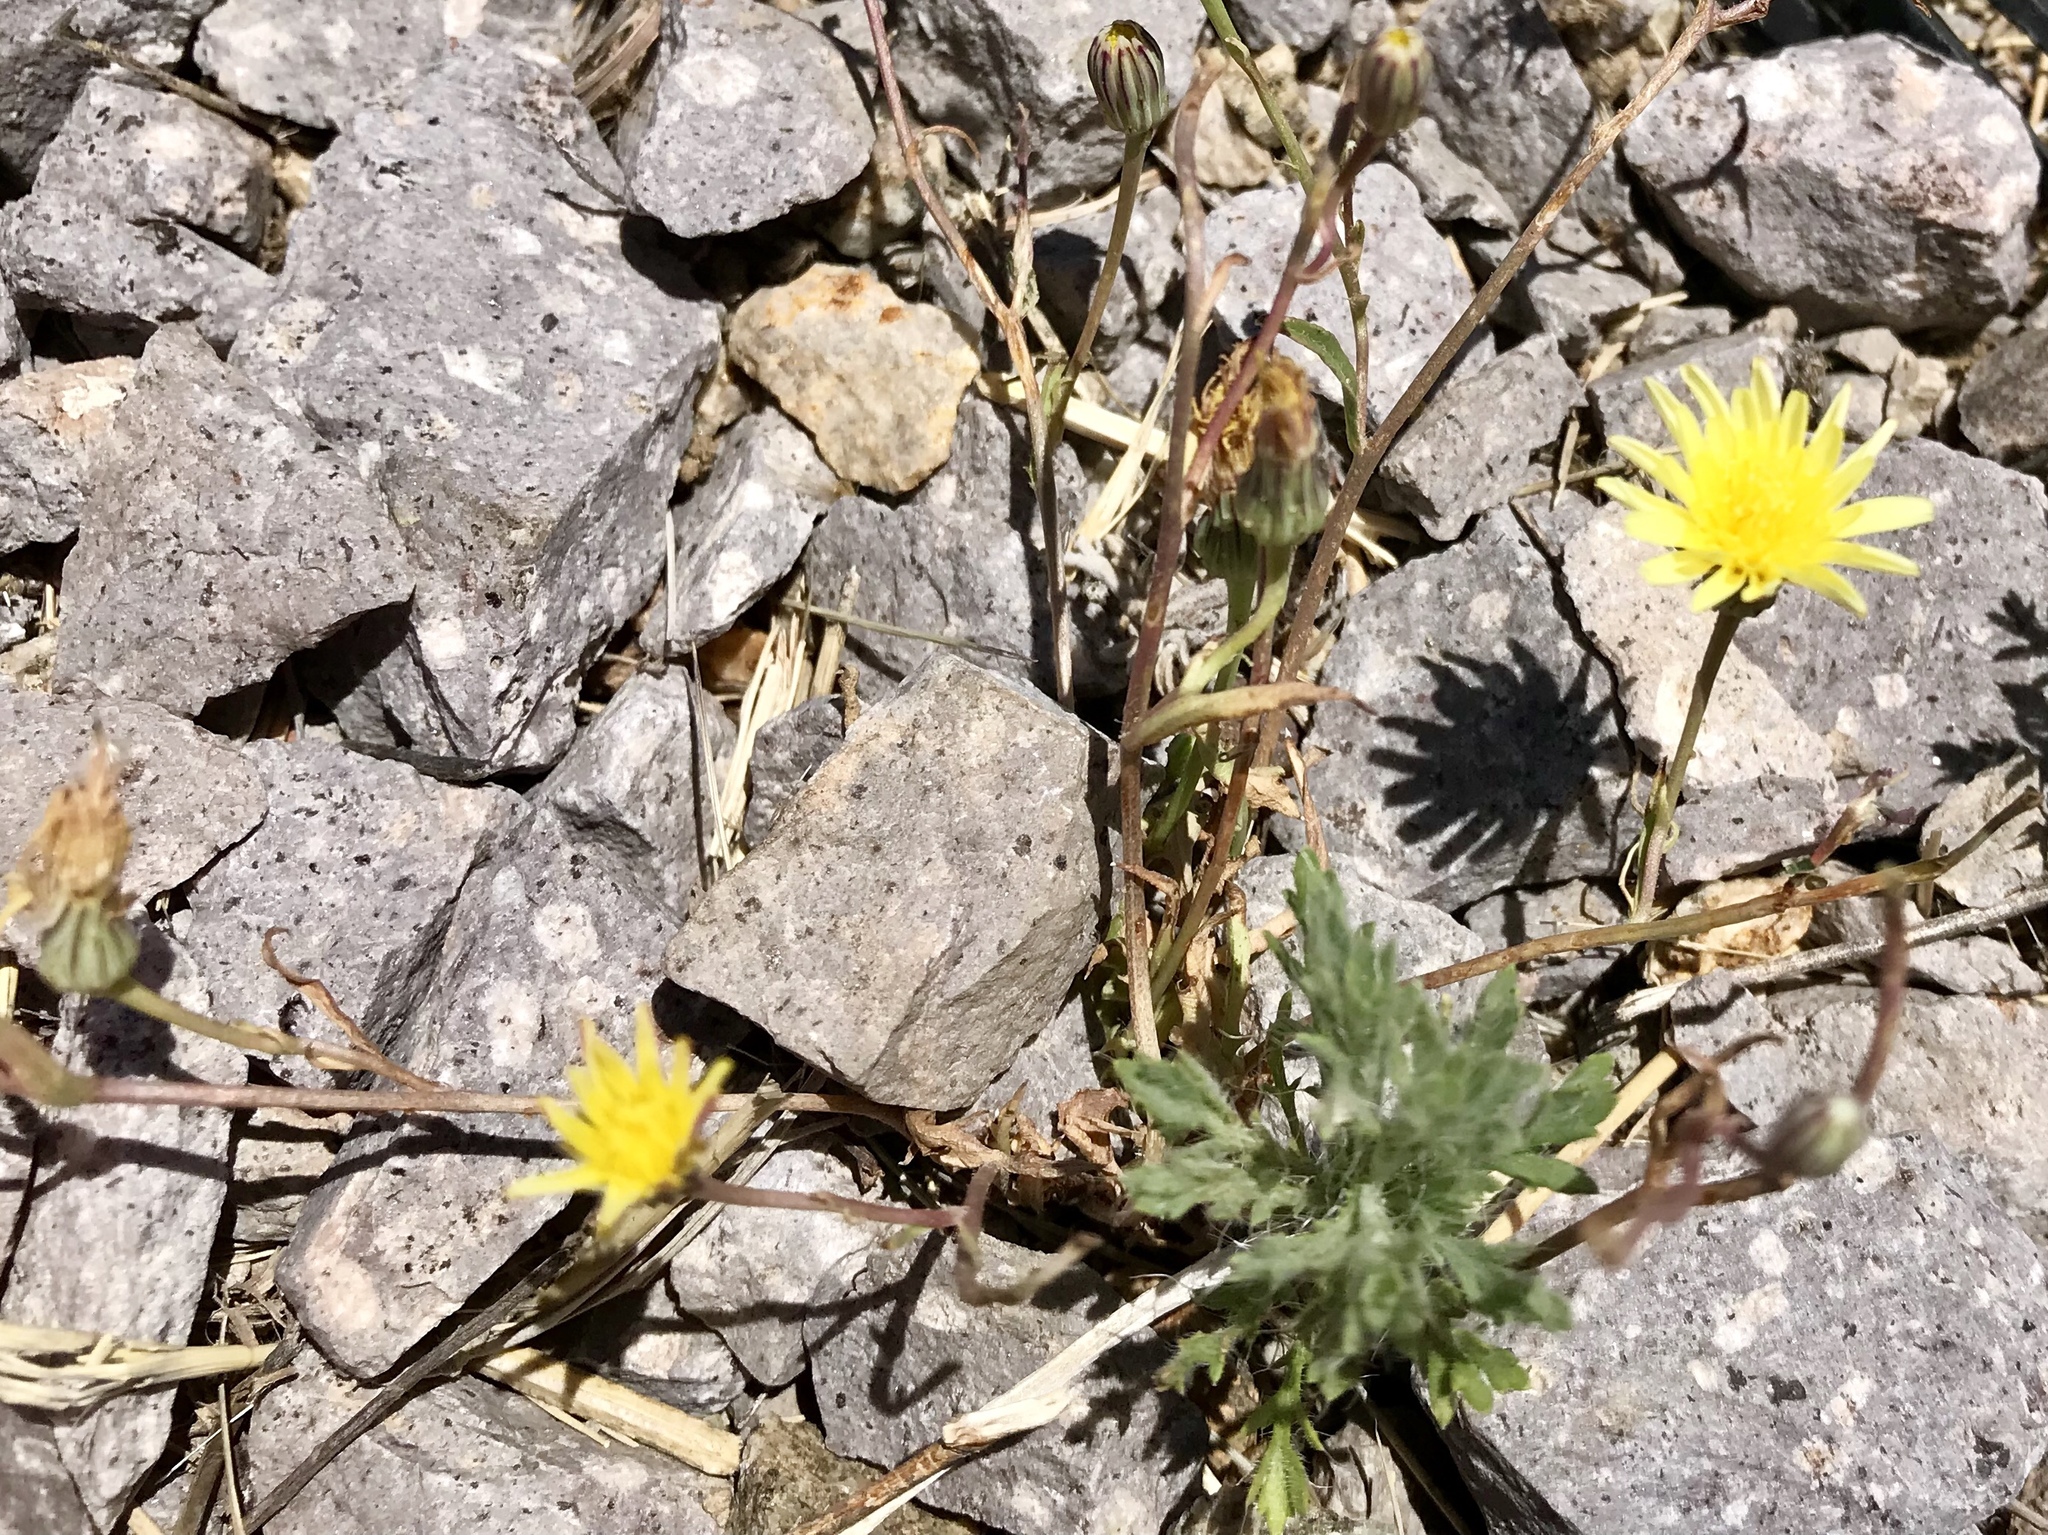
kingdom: Plantae
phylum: Tracheophyta
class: Magnoliopsida
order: Asterales
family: Asteraceae
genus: Malacothrix
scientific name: Malacothrix fendleri
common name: Fendler's desert-dandelion
